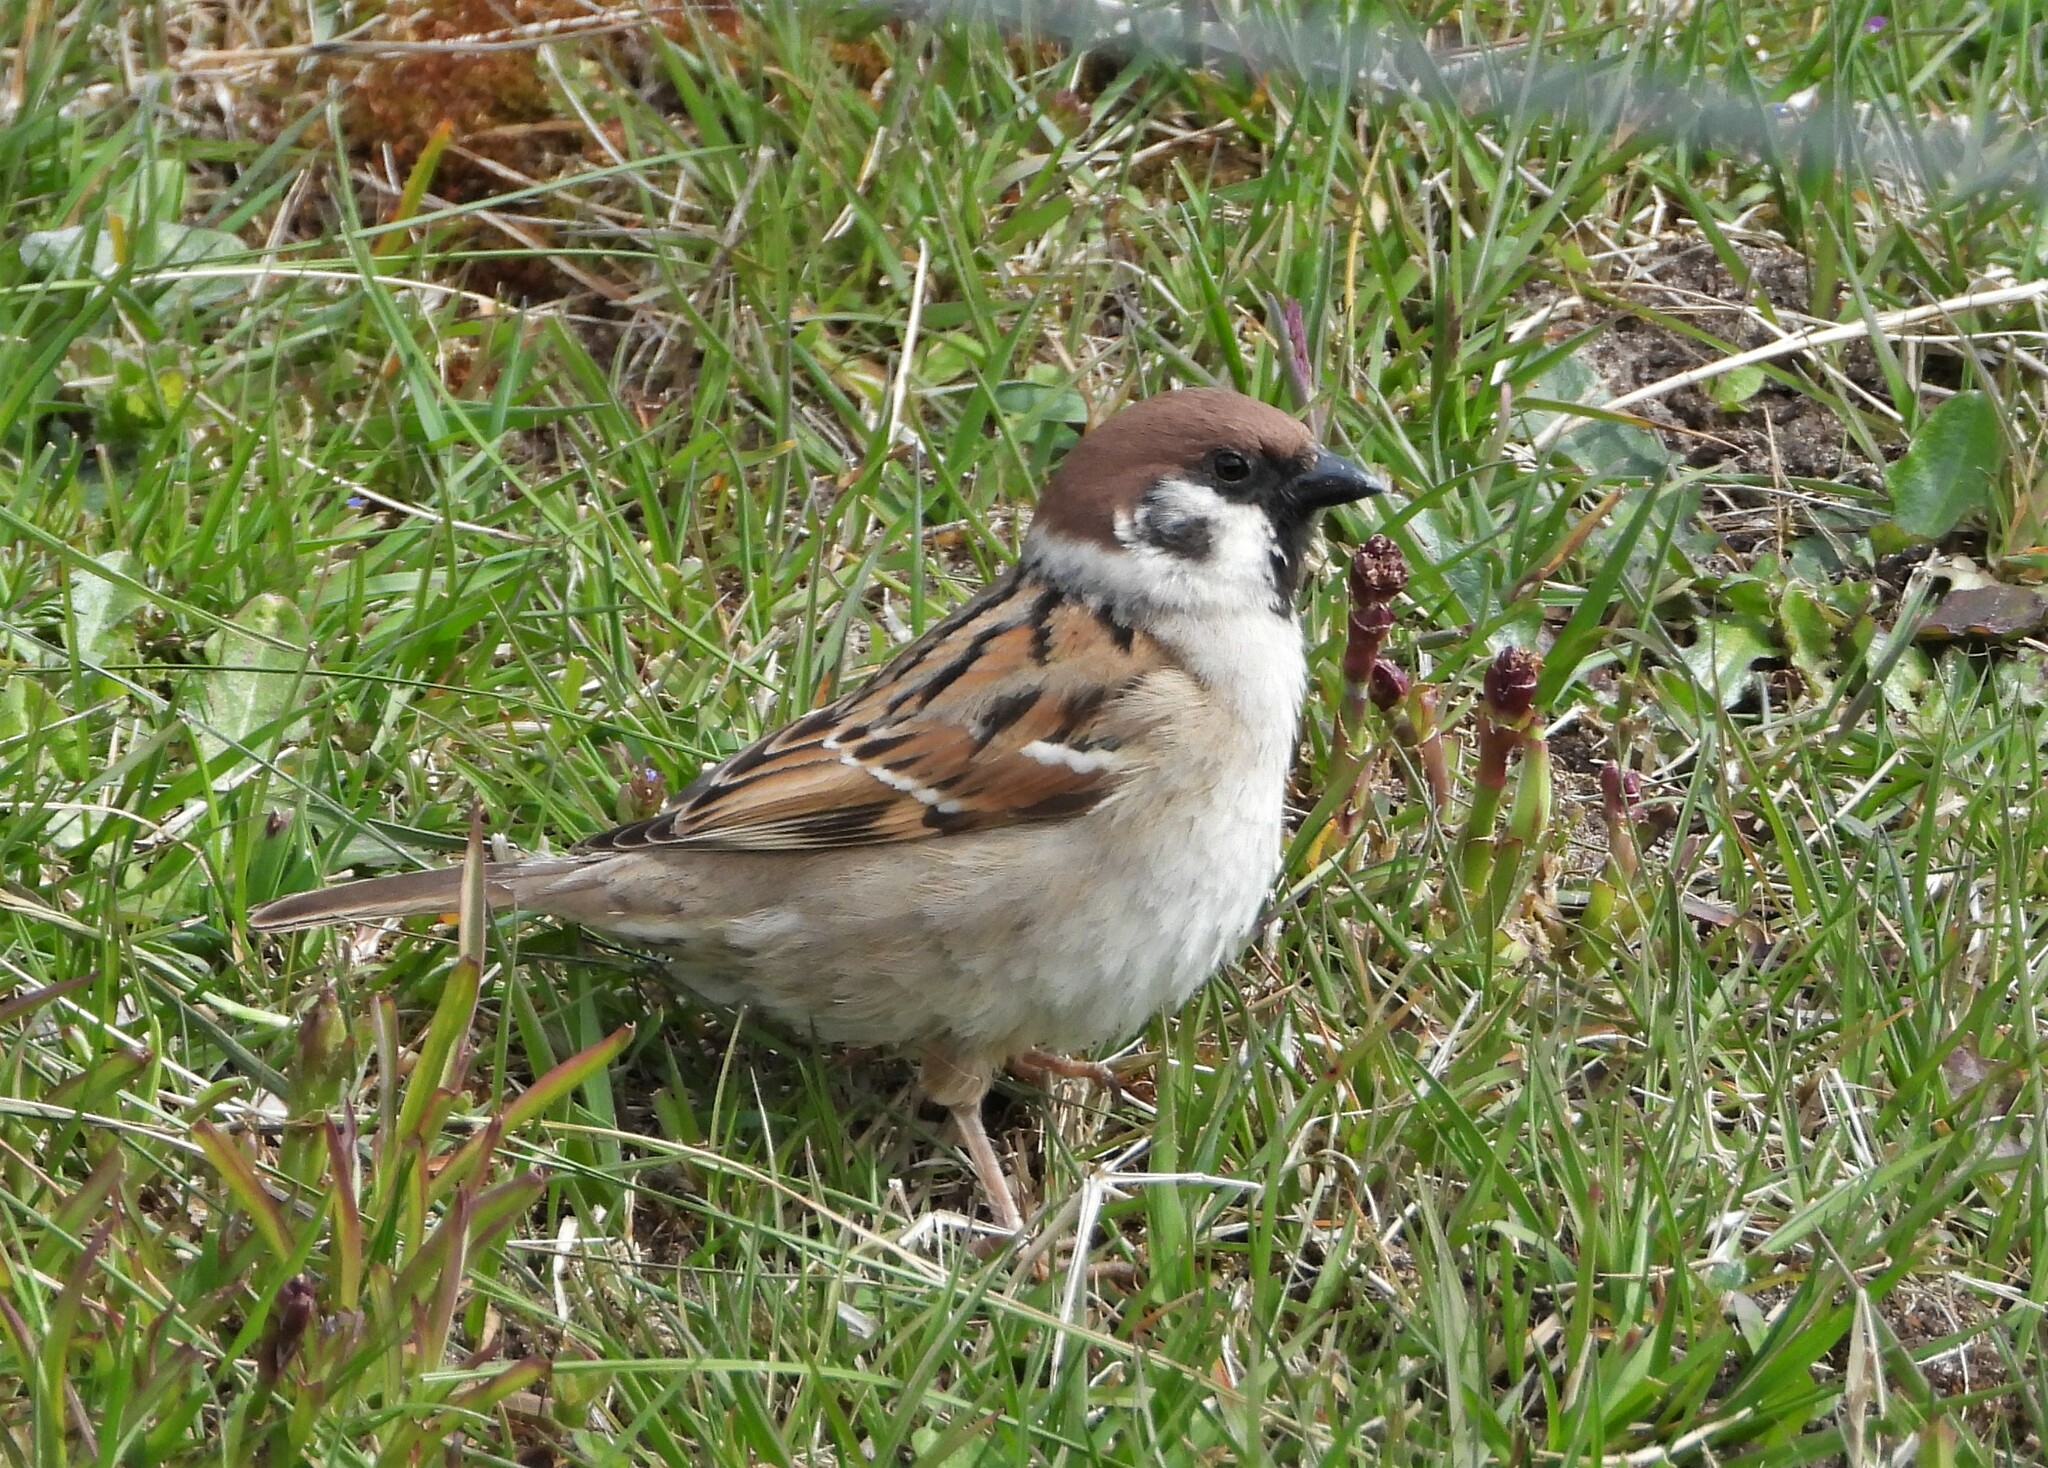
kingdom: Animalia
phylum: Chordata
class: Aves
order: Passeriformes
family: Passeridae
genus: Passer
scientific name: Passer montanus
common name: Eurasian tree sparrow
